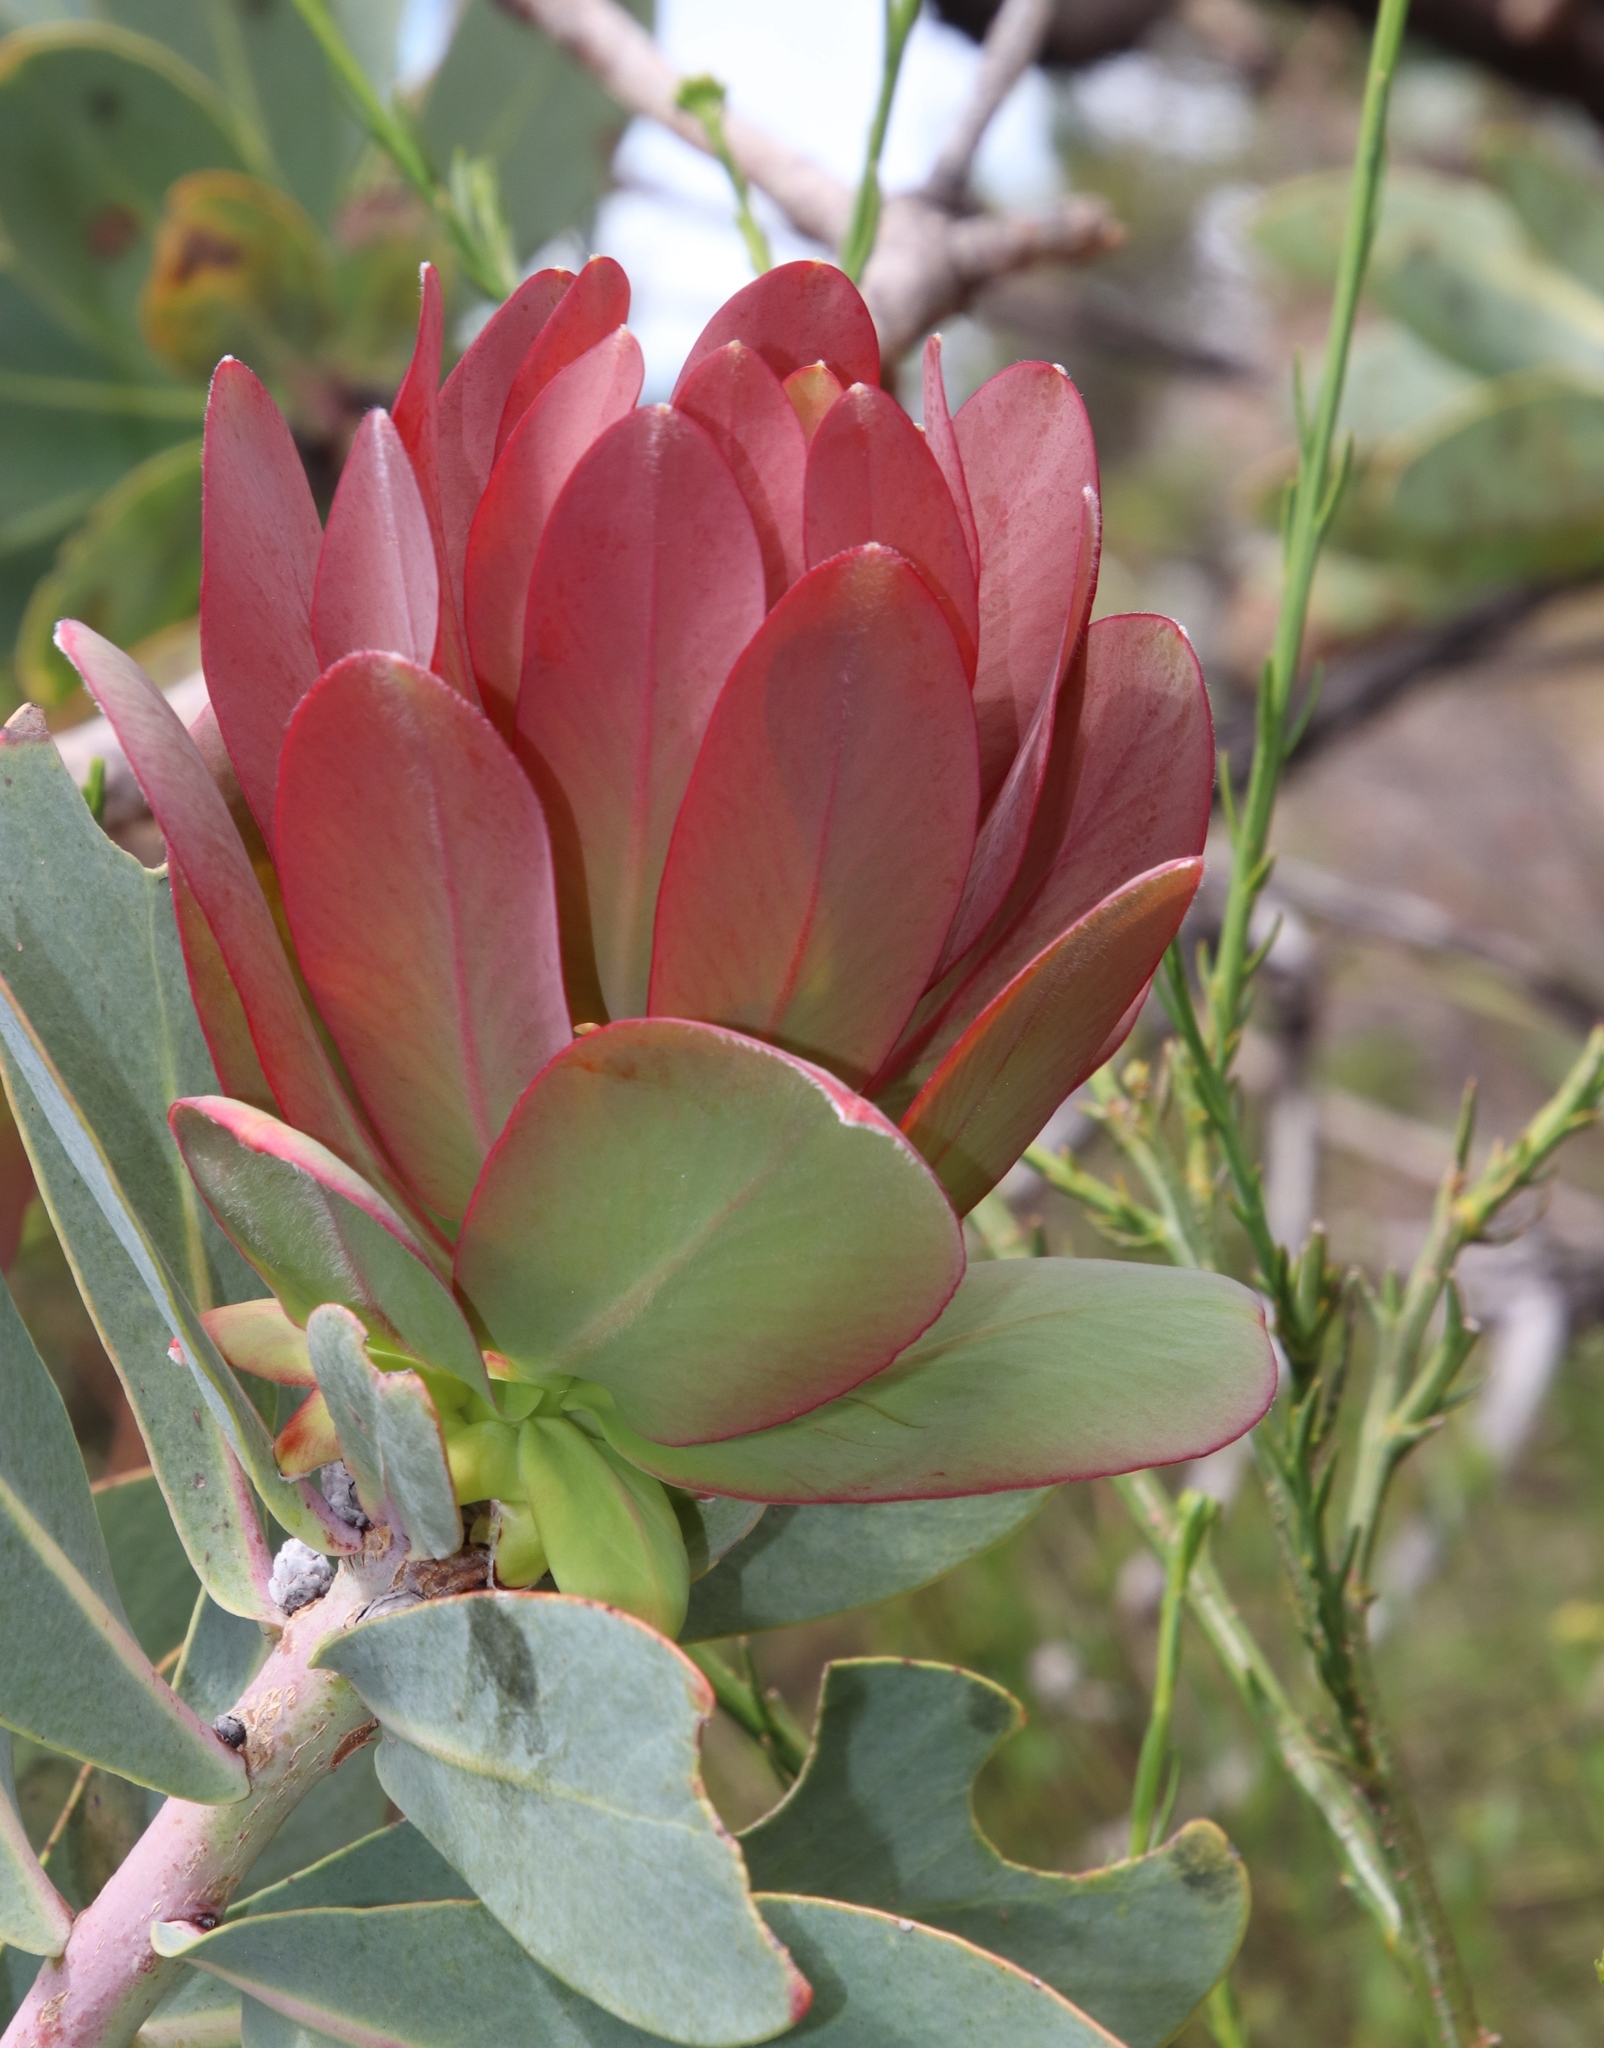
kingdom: Plantae
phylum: Tracheophyta
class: Magnoliopsida
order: Proteales
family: Proteaceae
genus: Protea
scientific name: Protea nitida
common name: Tree protea
